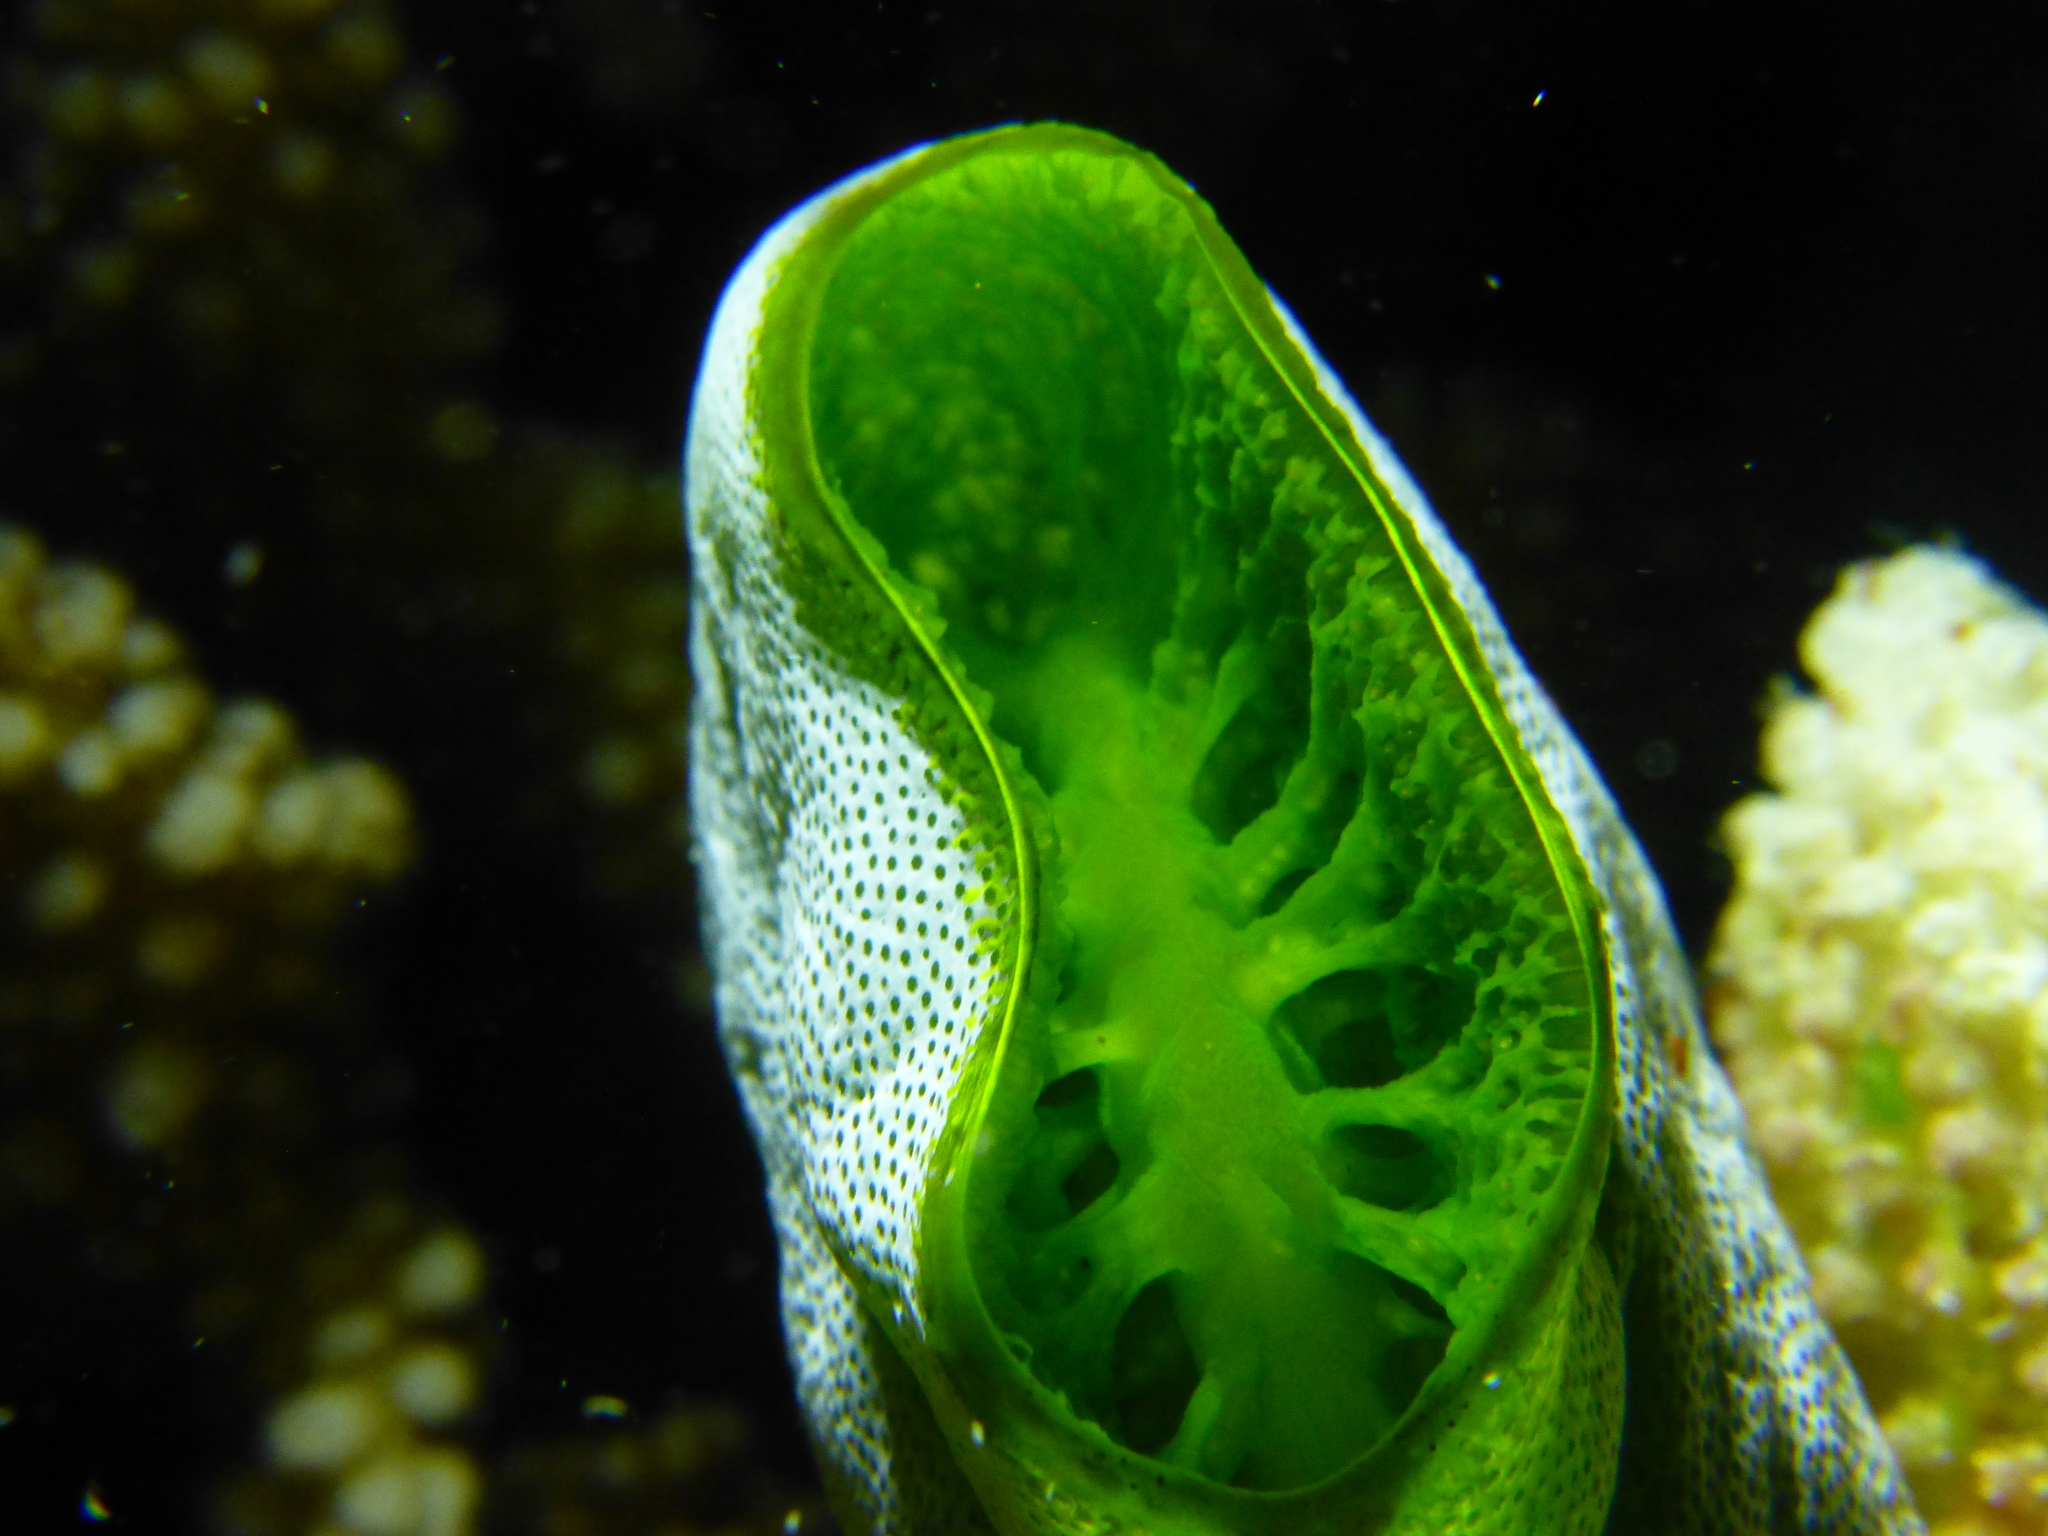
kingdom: Animalia
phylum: Chordata
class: Ascidiacea
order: Aplousobranchia
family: Didemnidae
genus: Didemnum
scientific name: Didemnum molle
